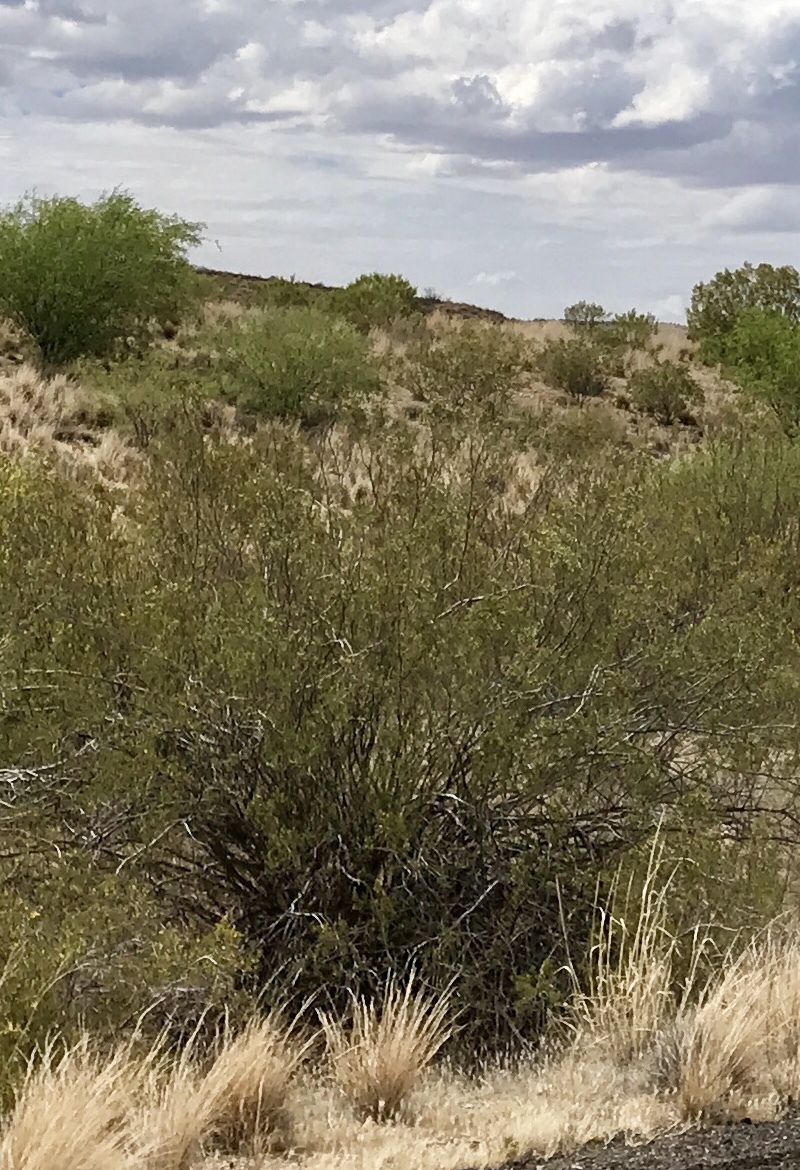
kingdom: Plantae
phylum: Tracheophyta
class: Magnoliopsida
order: Zygophyllales
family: Zygophyllaceae
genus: Larrea
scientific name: Larrea tridentata
